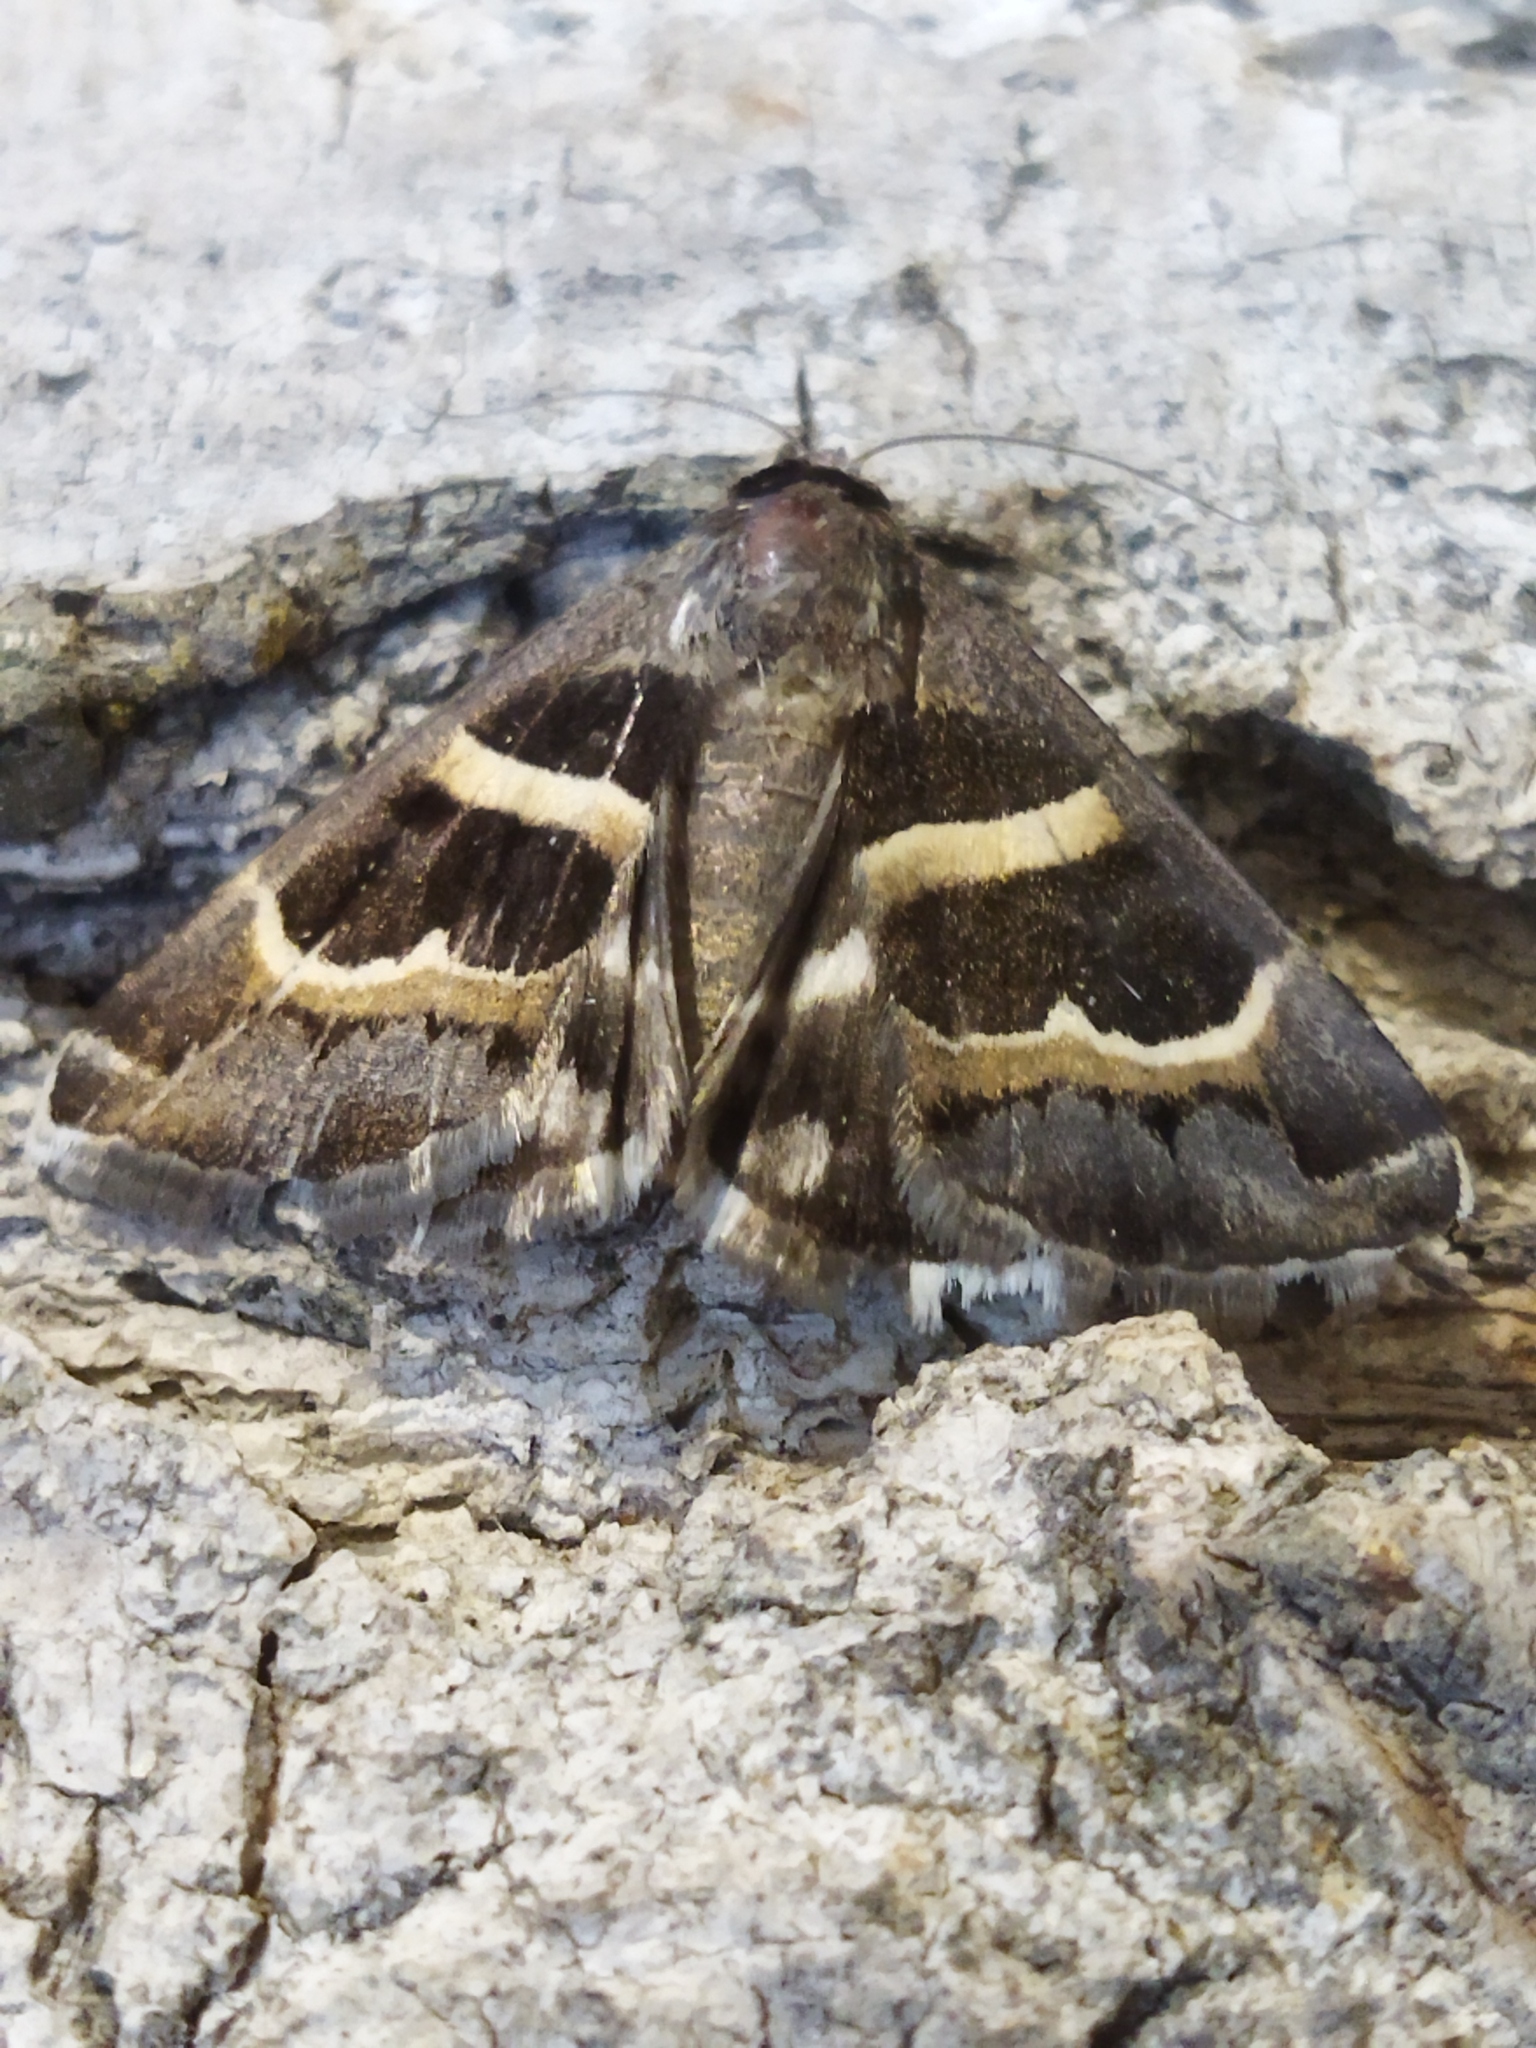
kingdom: Animalia
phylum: Arthropoda
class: Insecta
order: Lepidoptera
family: Erebidae
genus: Grammodes
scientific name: Grammodes stolida
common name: Geometrician
